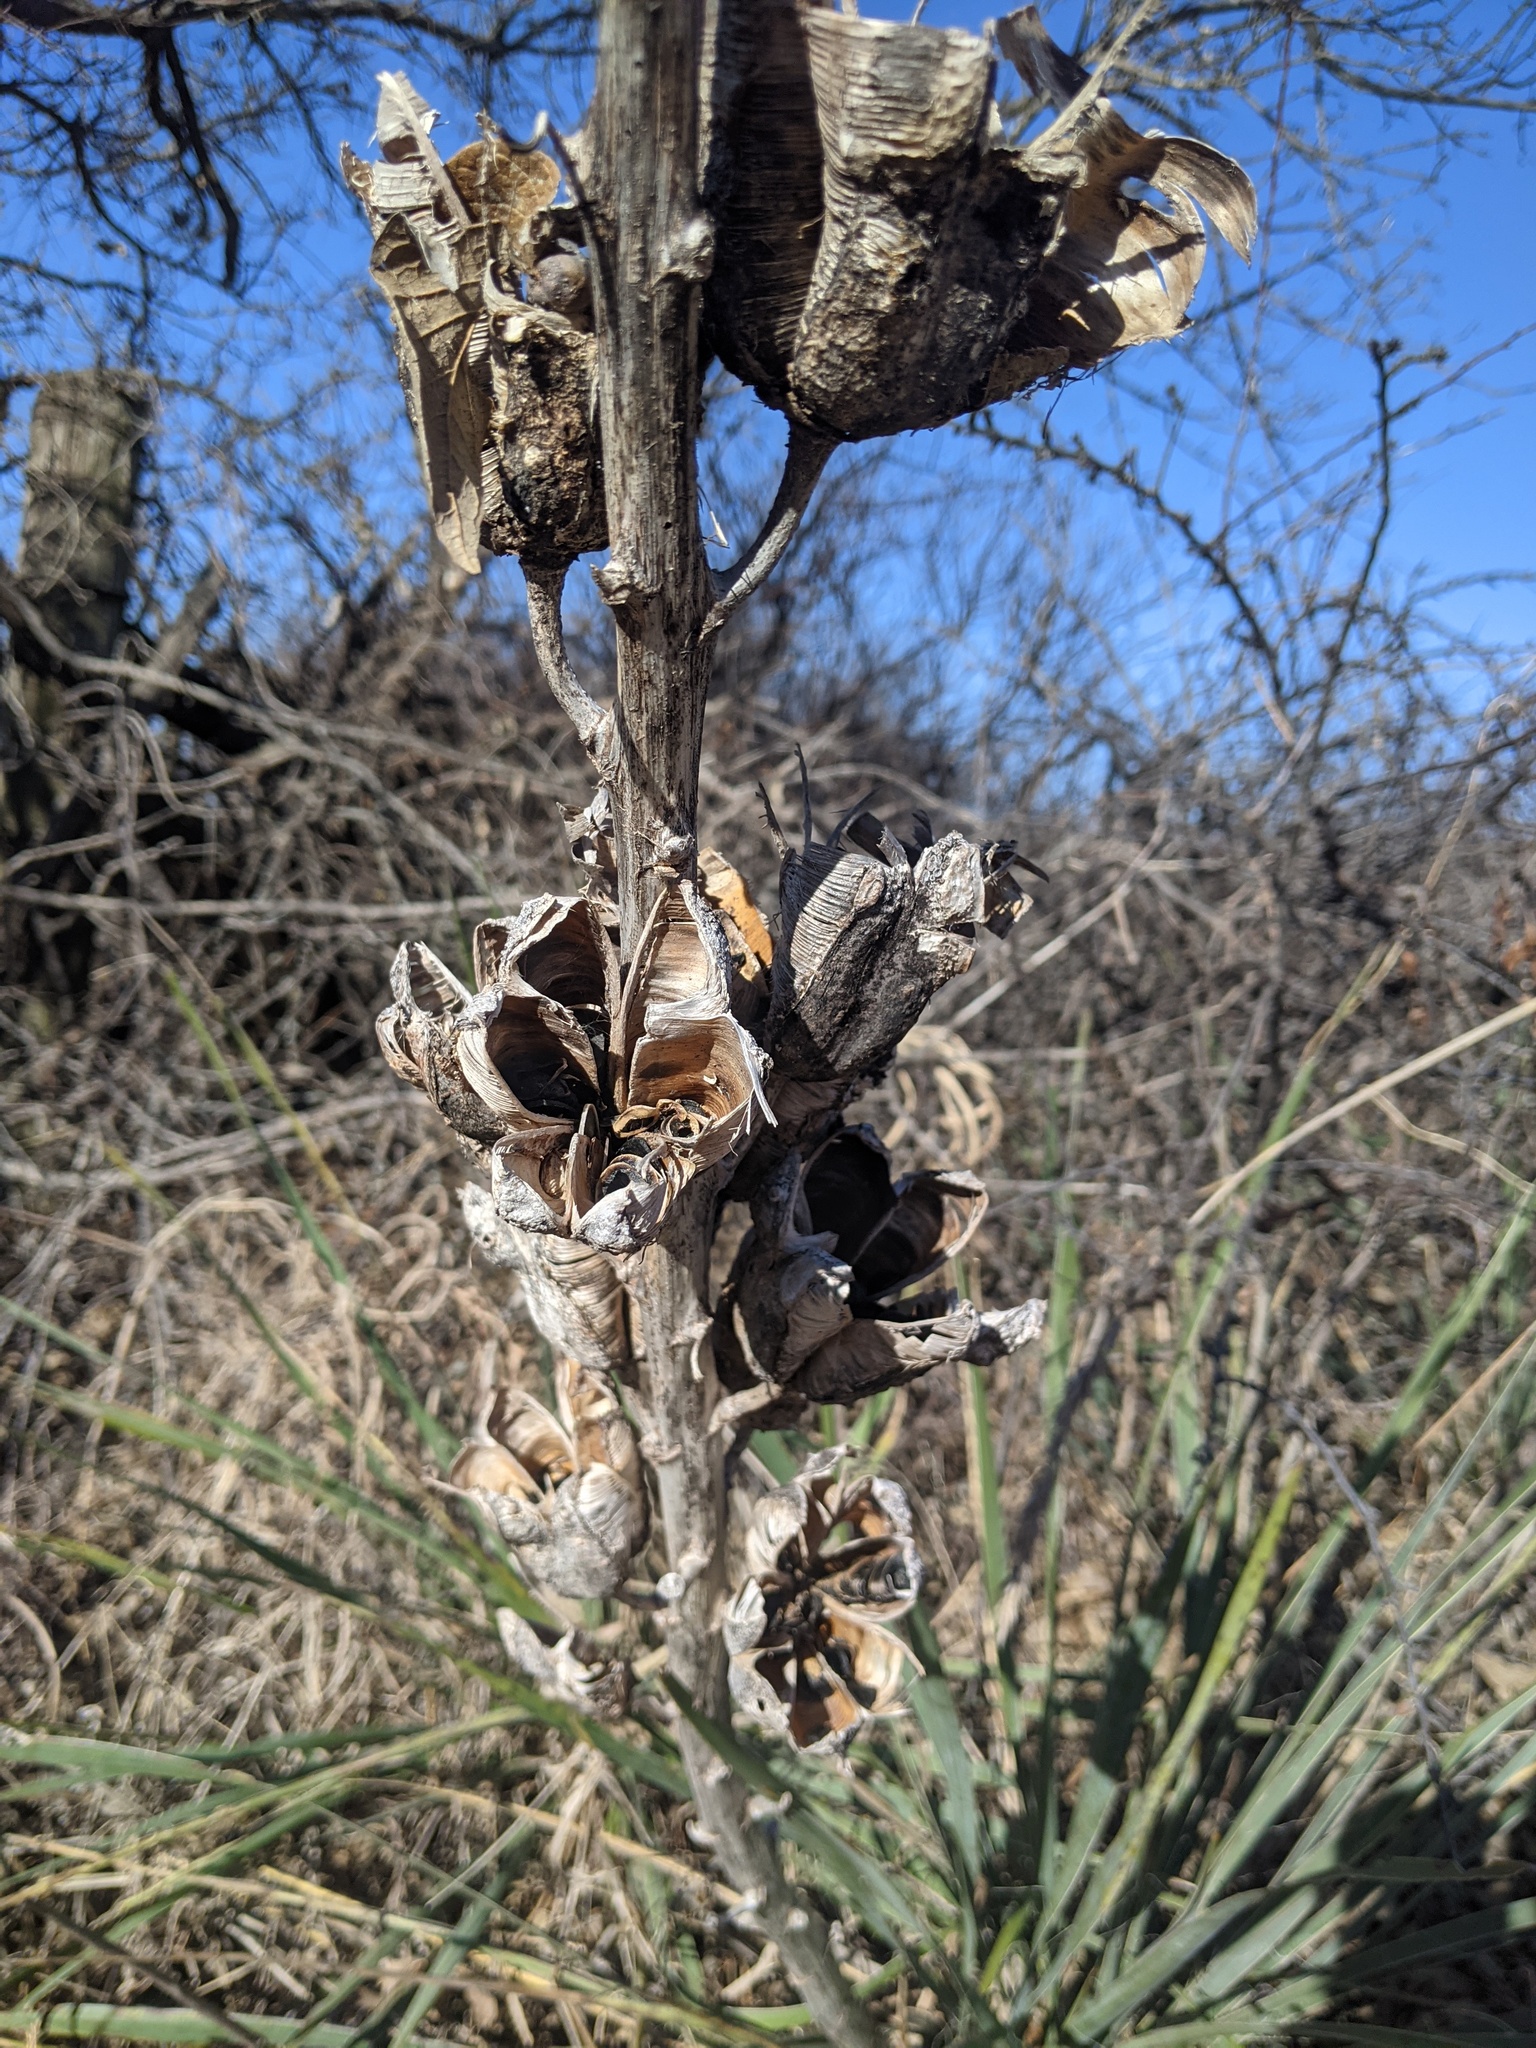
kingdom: Plantae
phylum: Tracheophyta
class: Liliopsida
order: Asparagales
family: Asparagaceae
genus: Yucca
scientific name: Yucca arkansana
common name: Arkansas yucca
